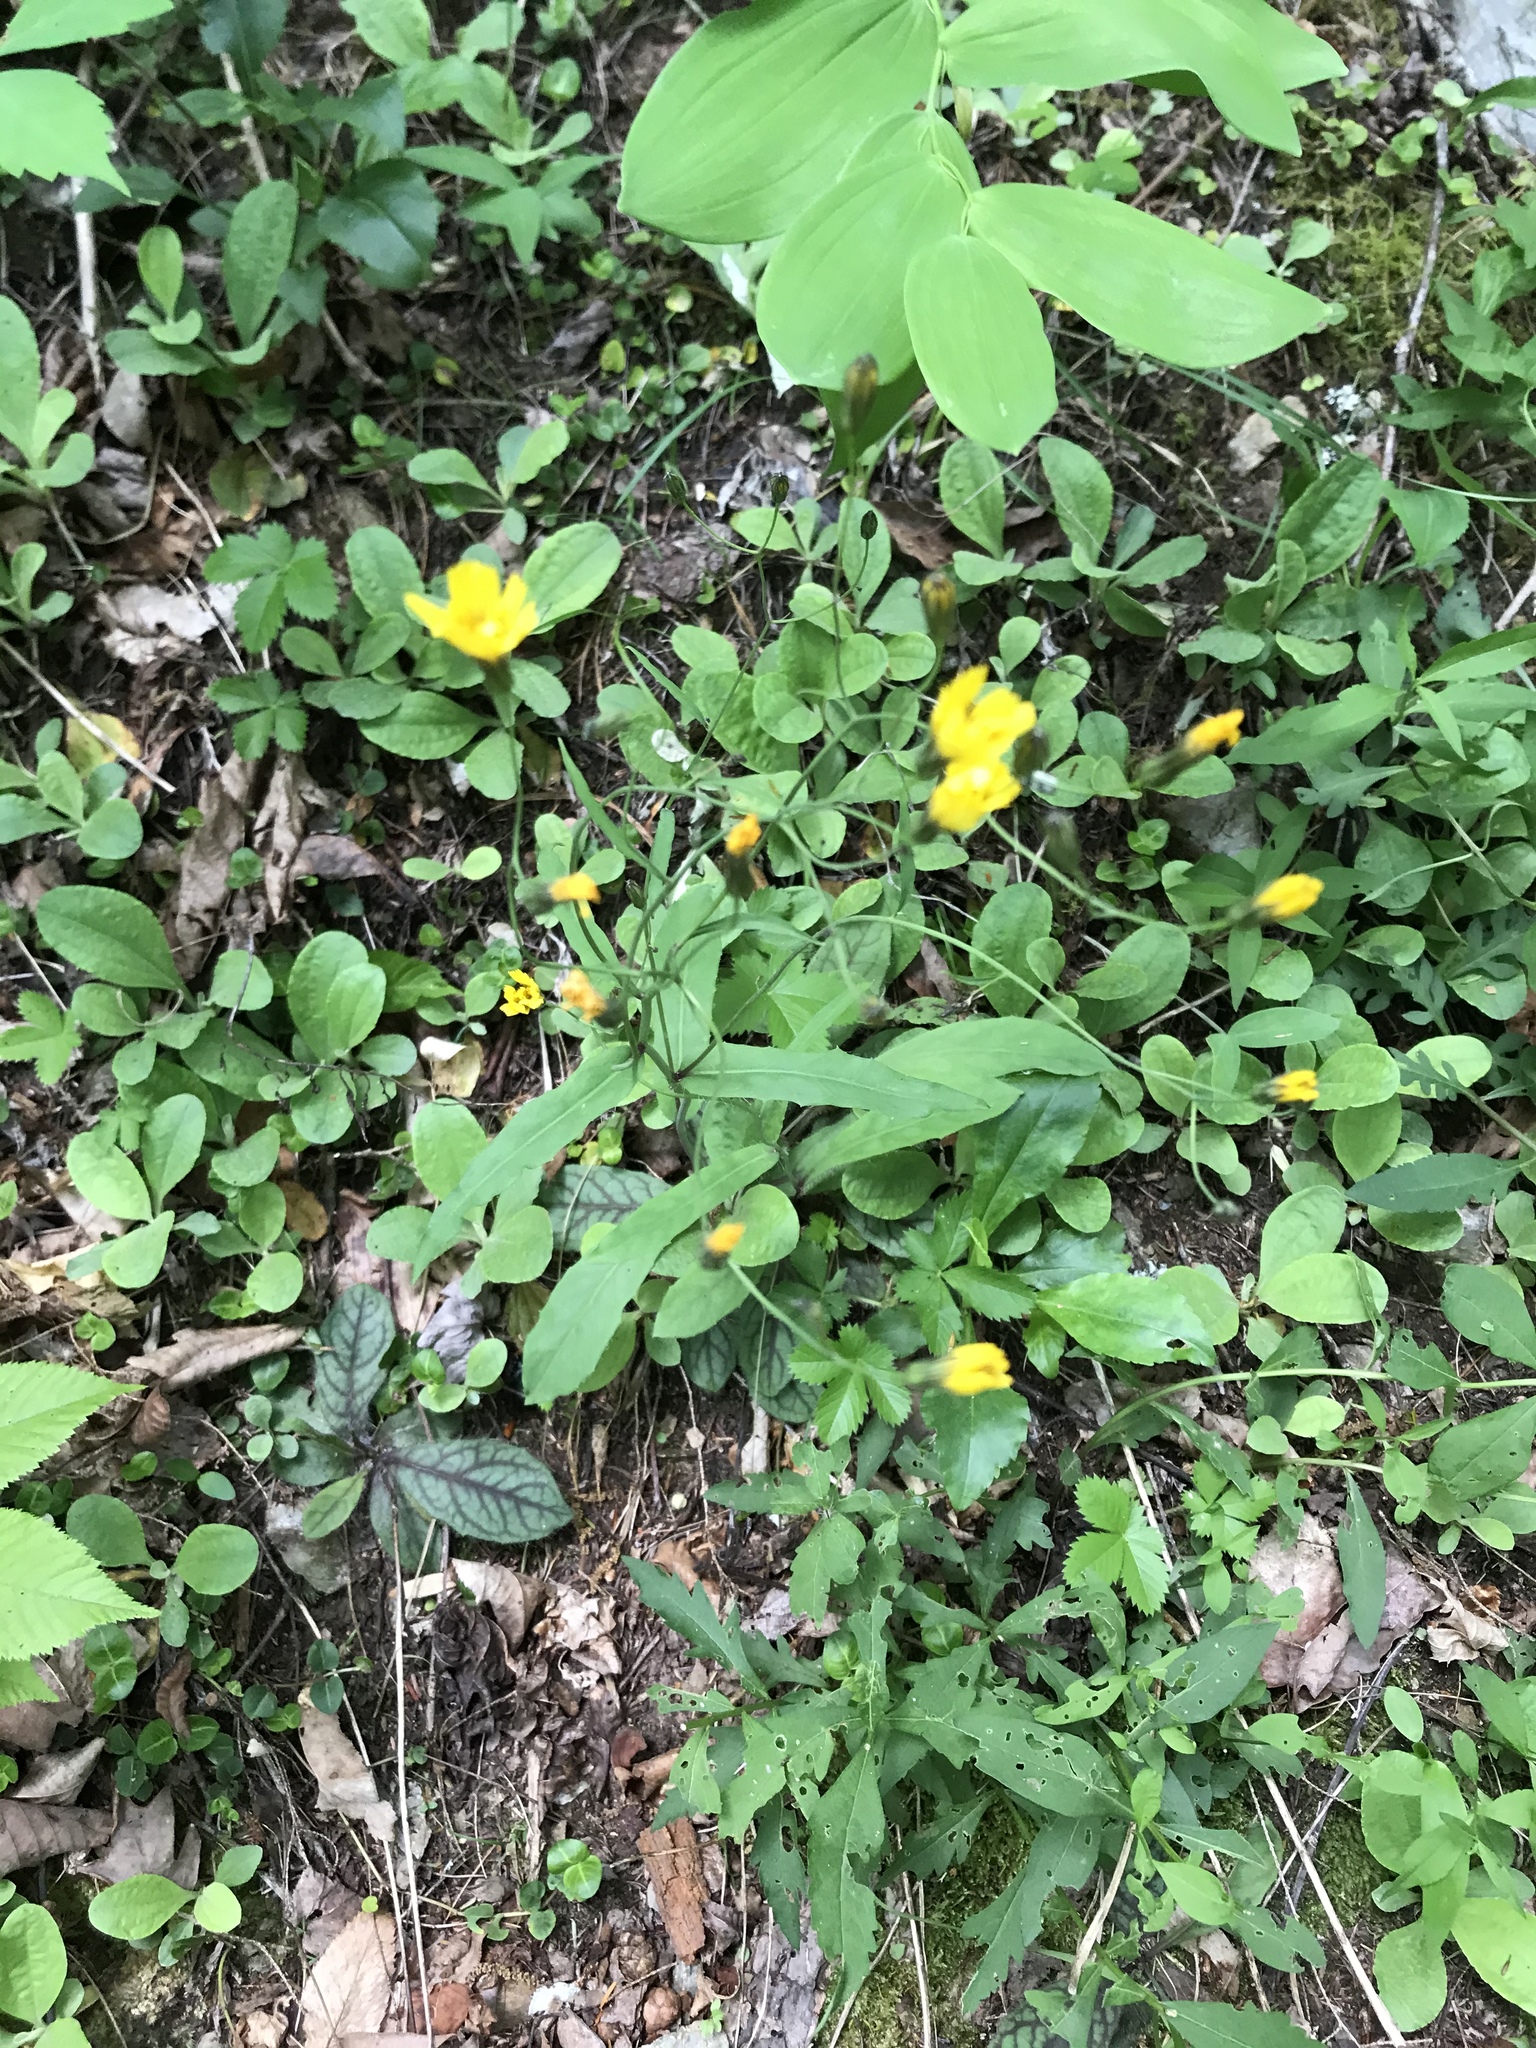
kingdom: Plantae
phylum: Tracheophyta
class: Magnoliopsida
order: Asterales
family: Asteraceae
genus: Hieracium
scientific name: Hieracium venosum
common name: Rattlesnake hawkweed
